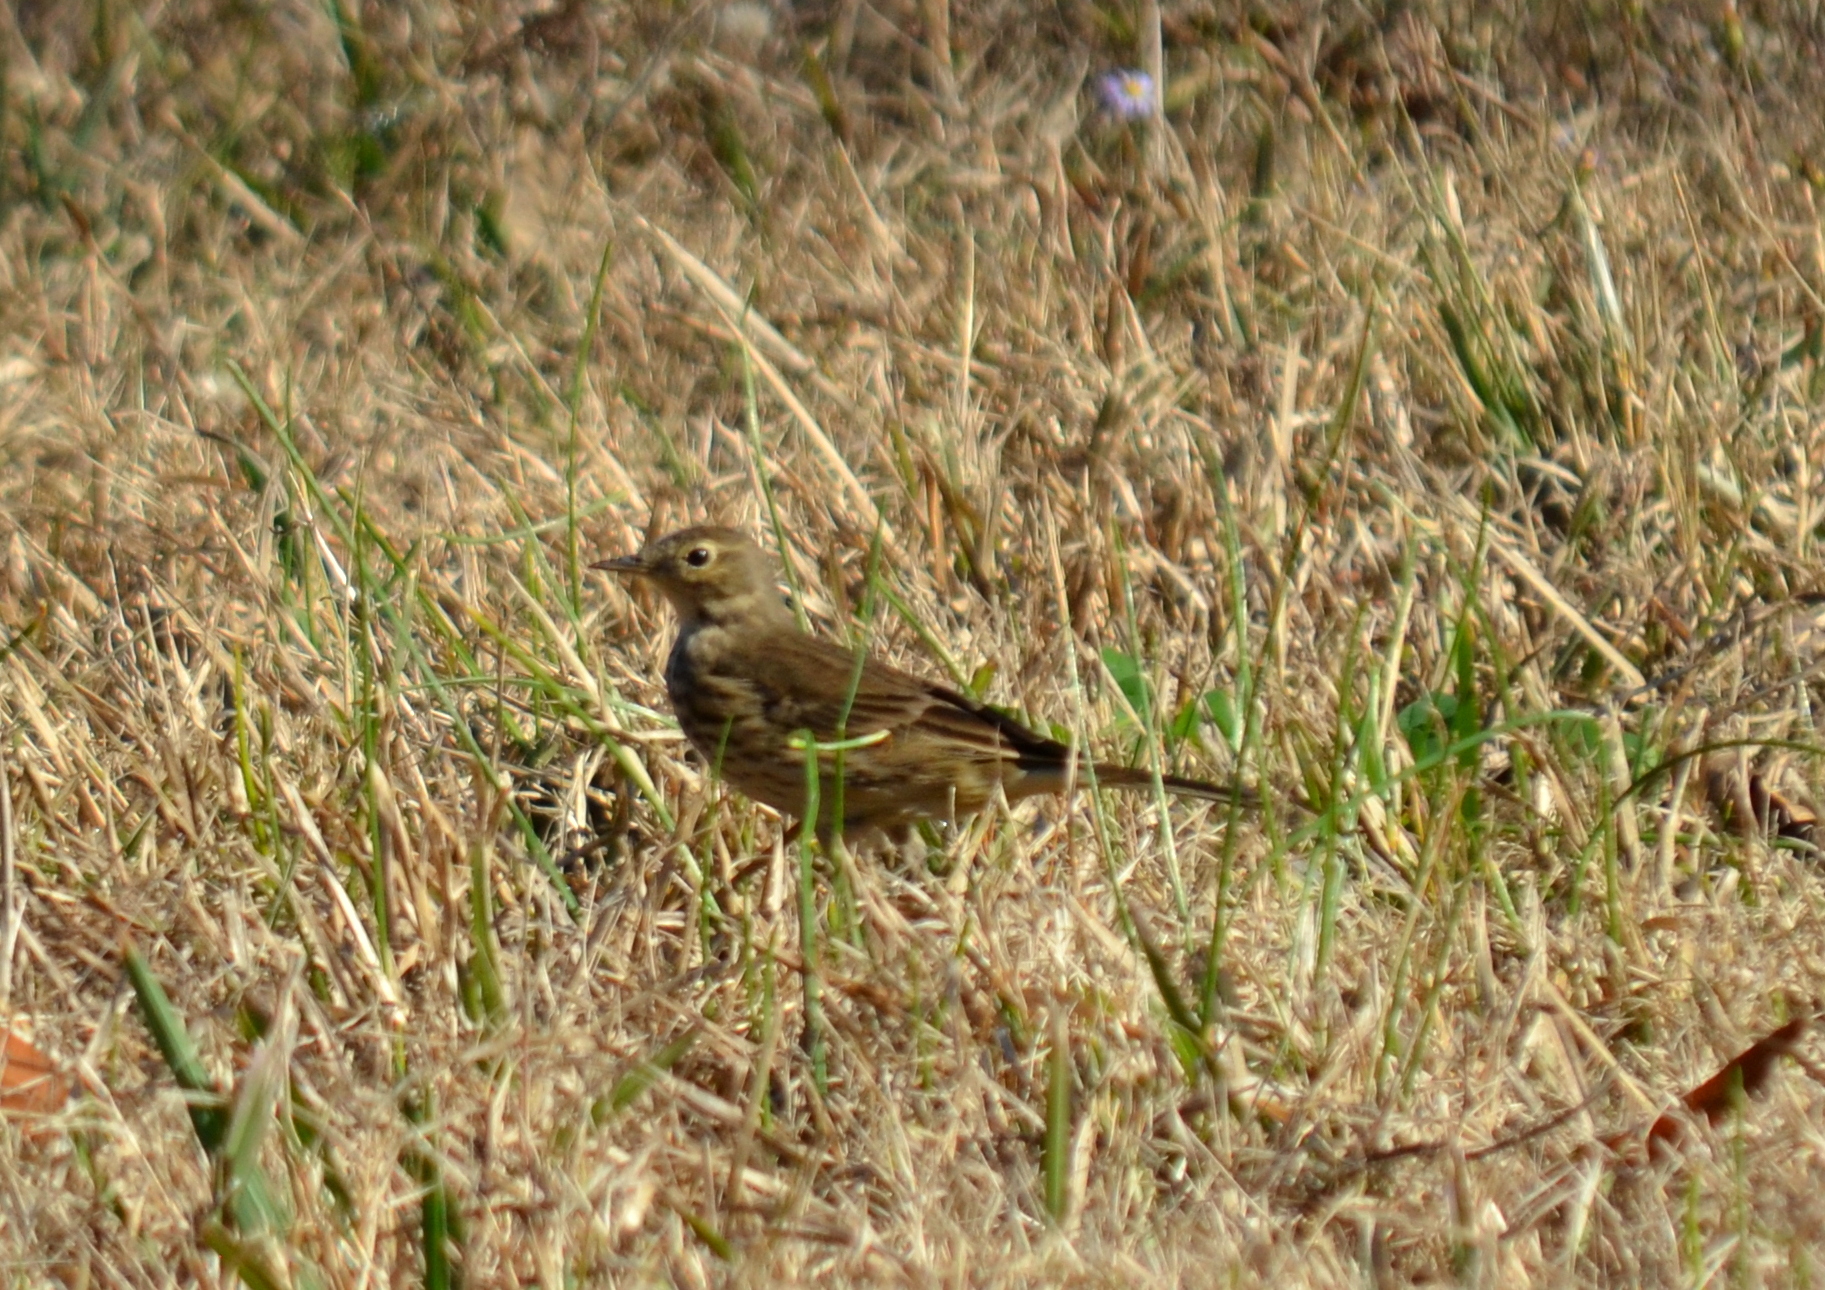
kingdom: Animalia
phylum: Chordata
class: Aves
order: Passeriformes
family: Motacillidae
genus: Anthus
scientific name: Anthus rubescens
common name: Buff-bellied pipit
